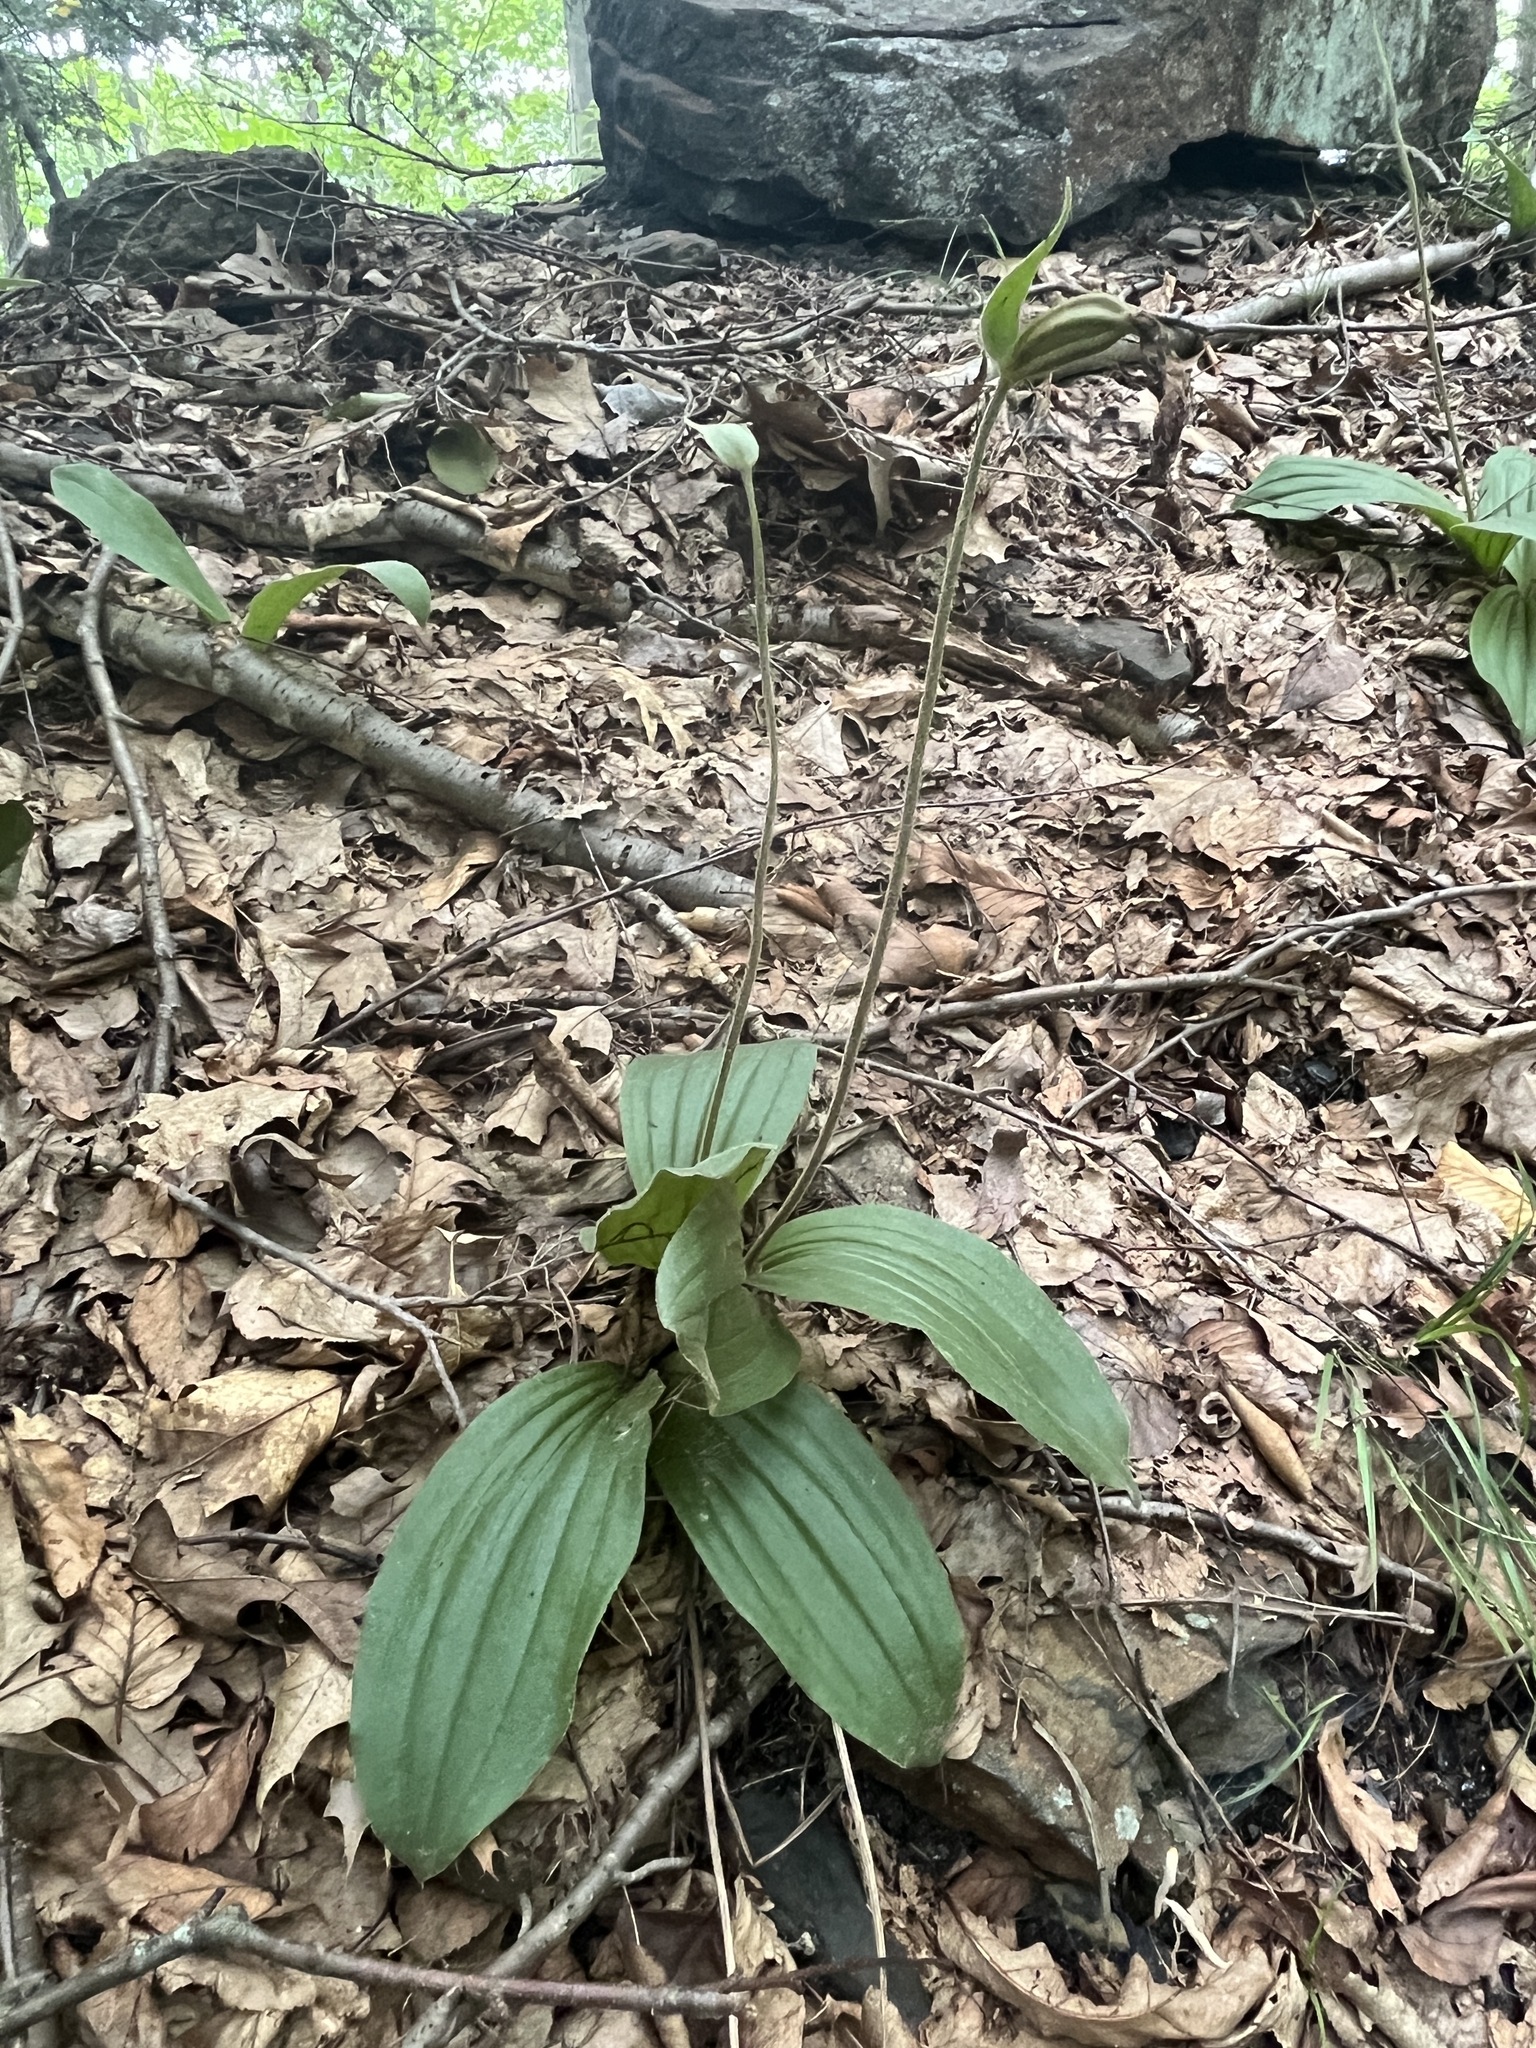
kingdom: Plantae
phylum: Tracheophyta
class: Liliopsida
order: Asparagales
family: Orchidaceae
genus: Cypripedium
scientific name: Cypripedium acaule
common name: Pink lady's-slipper
